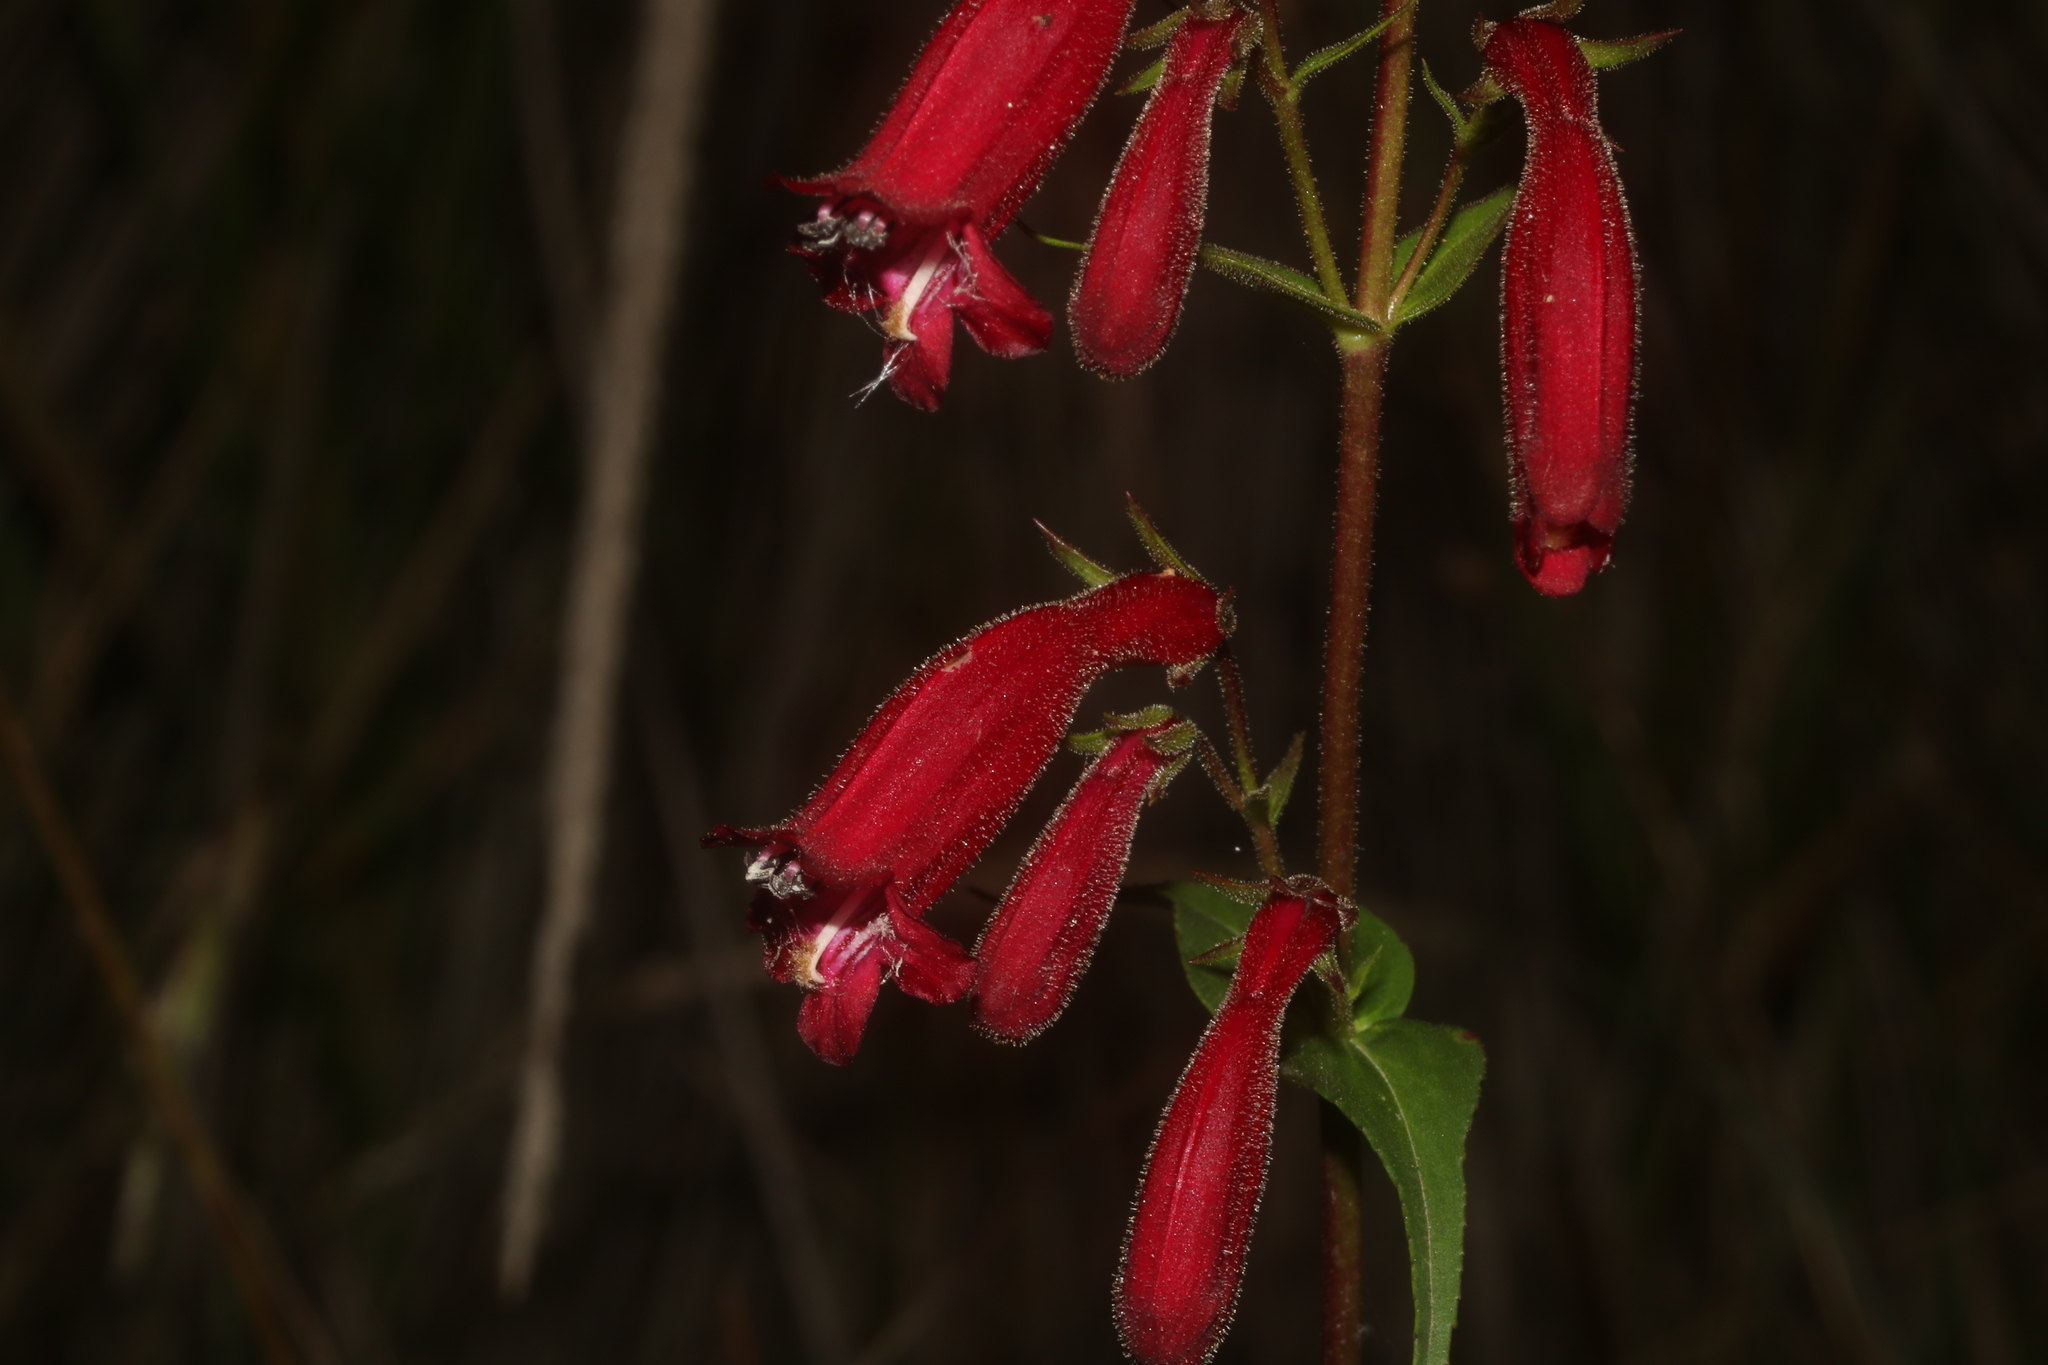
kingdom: Plantae
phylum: Tracheophyta
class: Magnoliopsida
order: Lamiales
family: Plantaginaceae
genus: Penstemon
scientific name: Penstemon roseus
